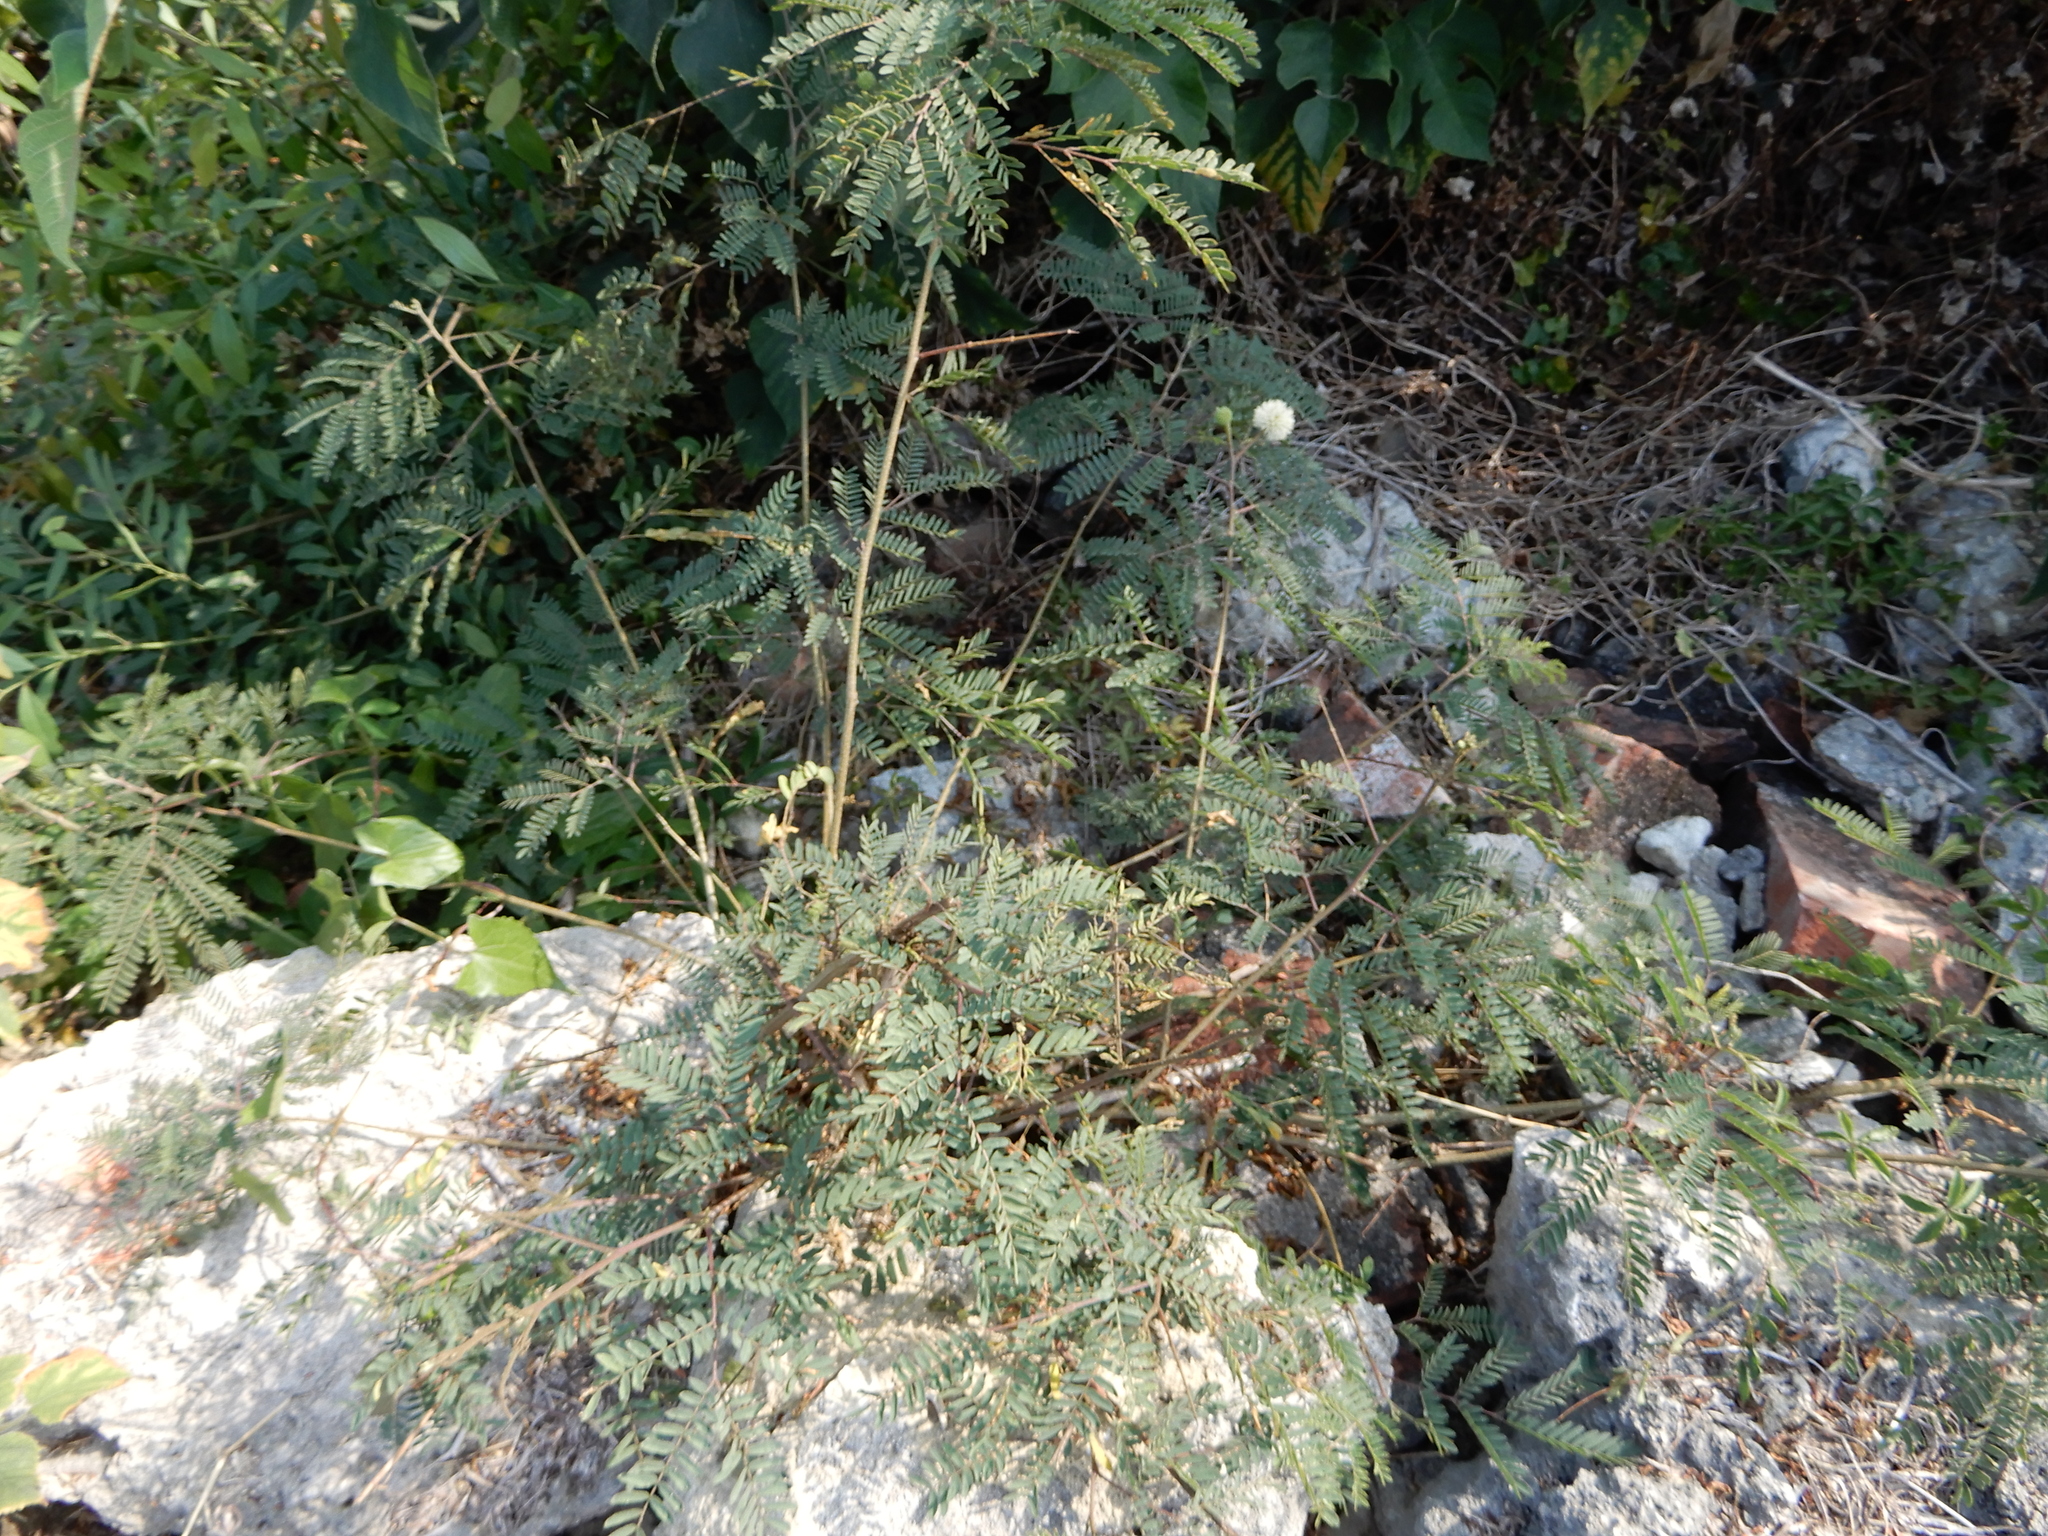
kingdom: Plantae
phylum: Tracheophyta
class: Magnoliopsida
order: Fabales
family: Fabaceae
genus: Leucaena
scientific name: Leucaena leucocephala
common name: White leadtree
